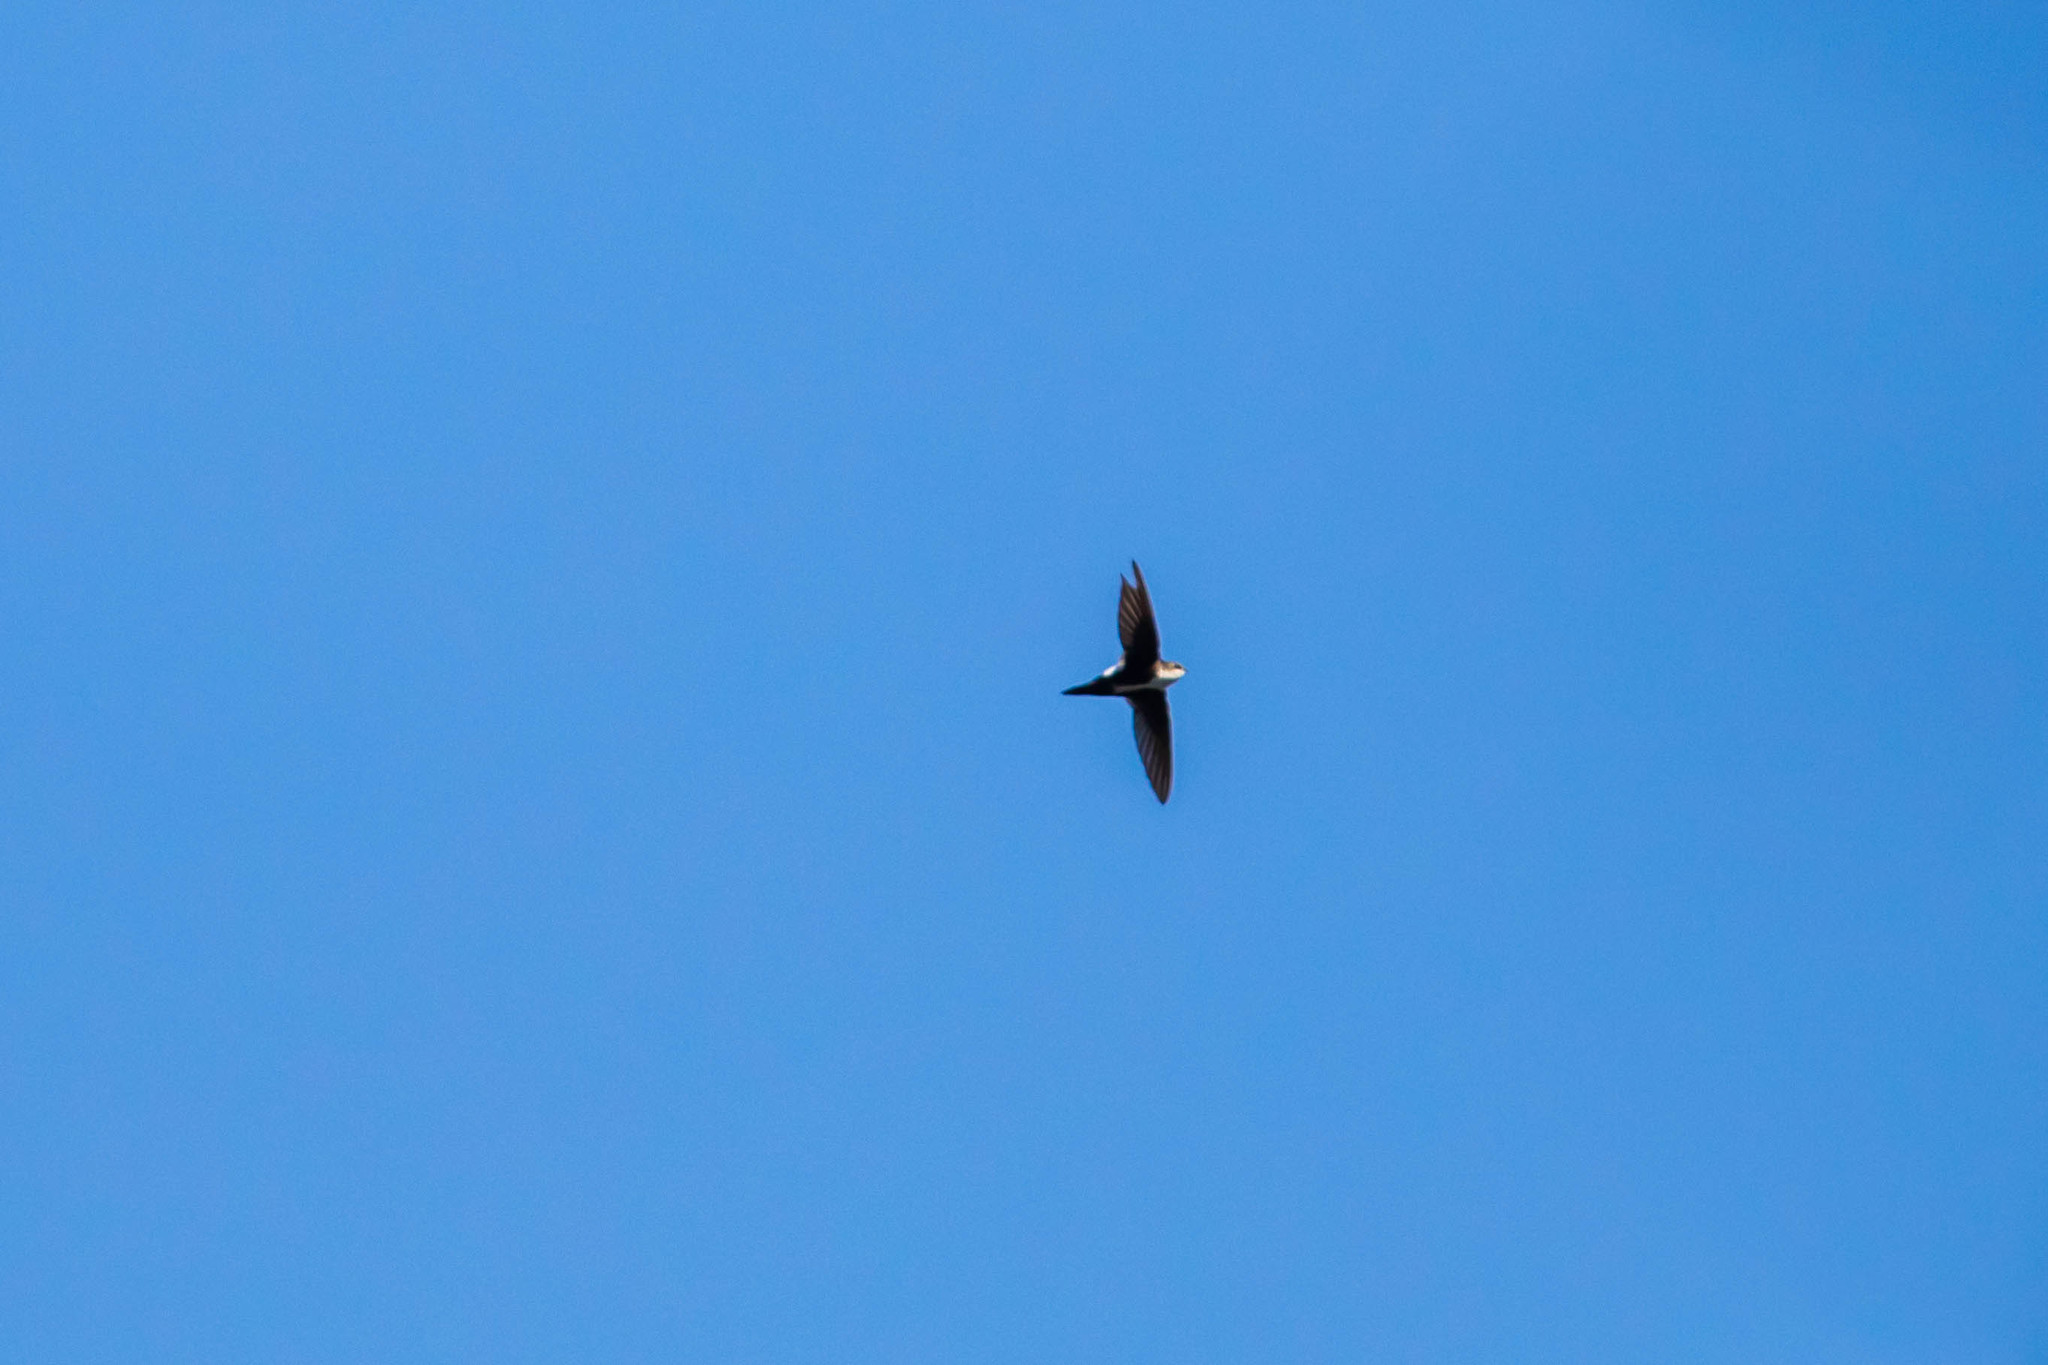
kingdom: Animalia
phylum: Chordata
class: Aves
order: Apodiformes
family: Apodidae
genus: Aeronautes
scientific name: Aeronautes saxatalis
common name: White-throated swift
